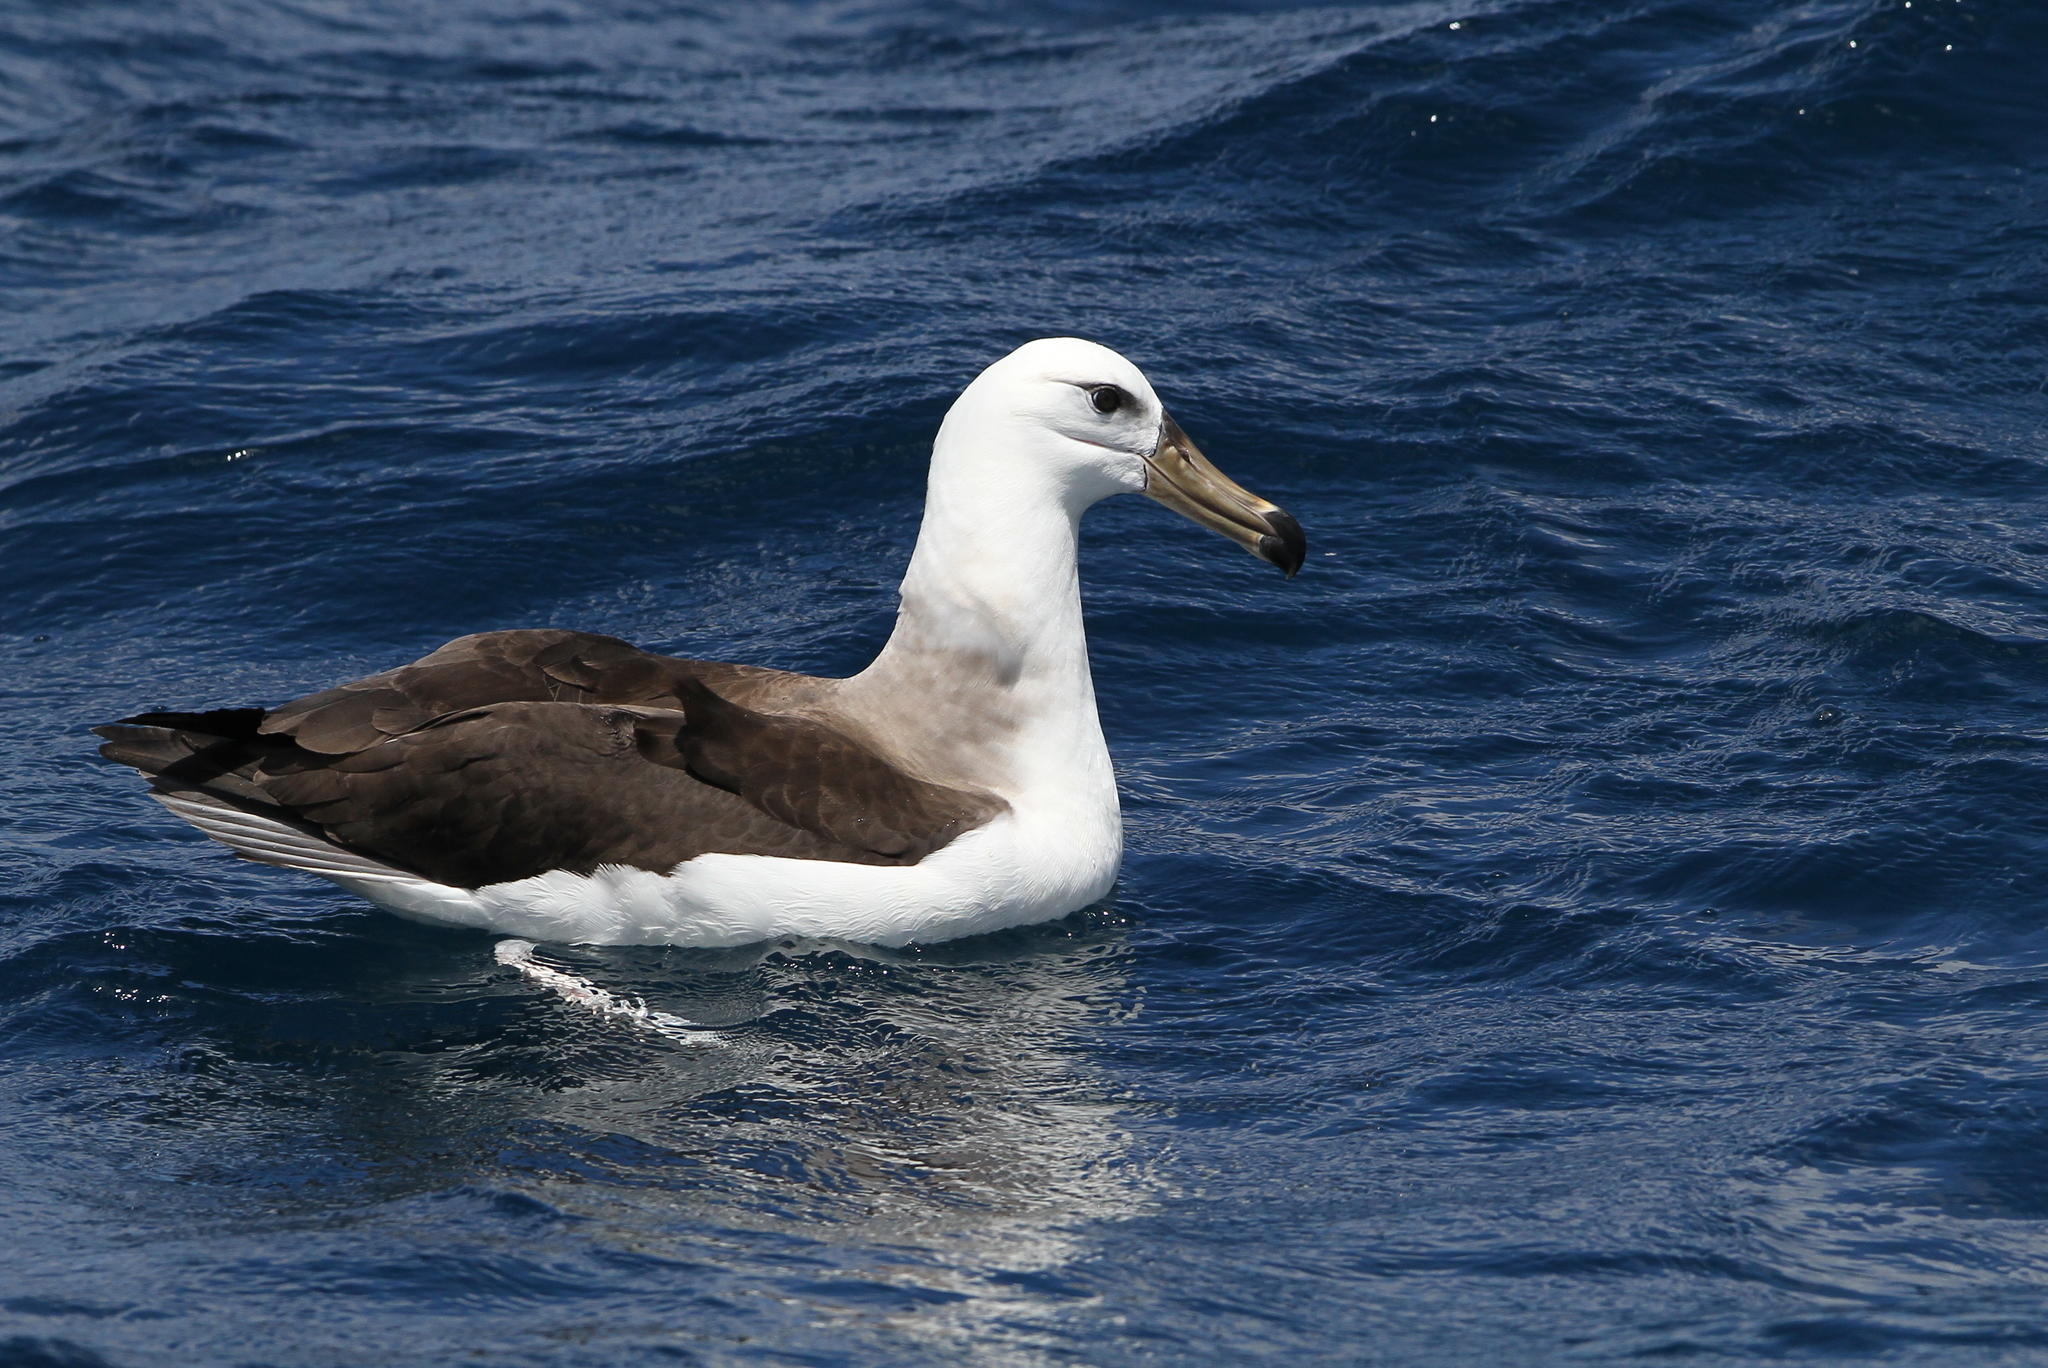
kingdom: Animalia
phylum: Chordata
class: Aves
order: Procellariiformes
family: Diomedeidae
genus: Thalassarche
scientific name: Thalassarche melanophris
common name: Black-browed albatross
